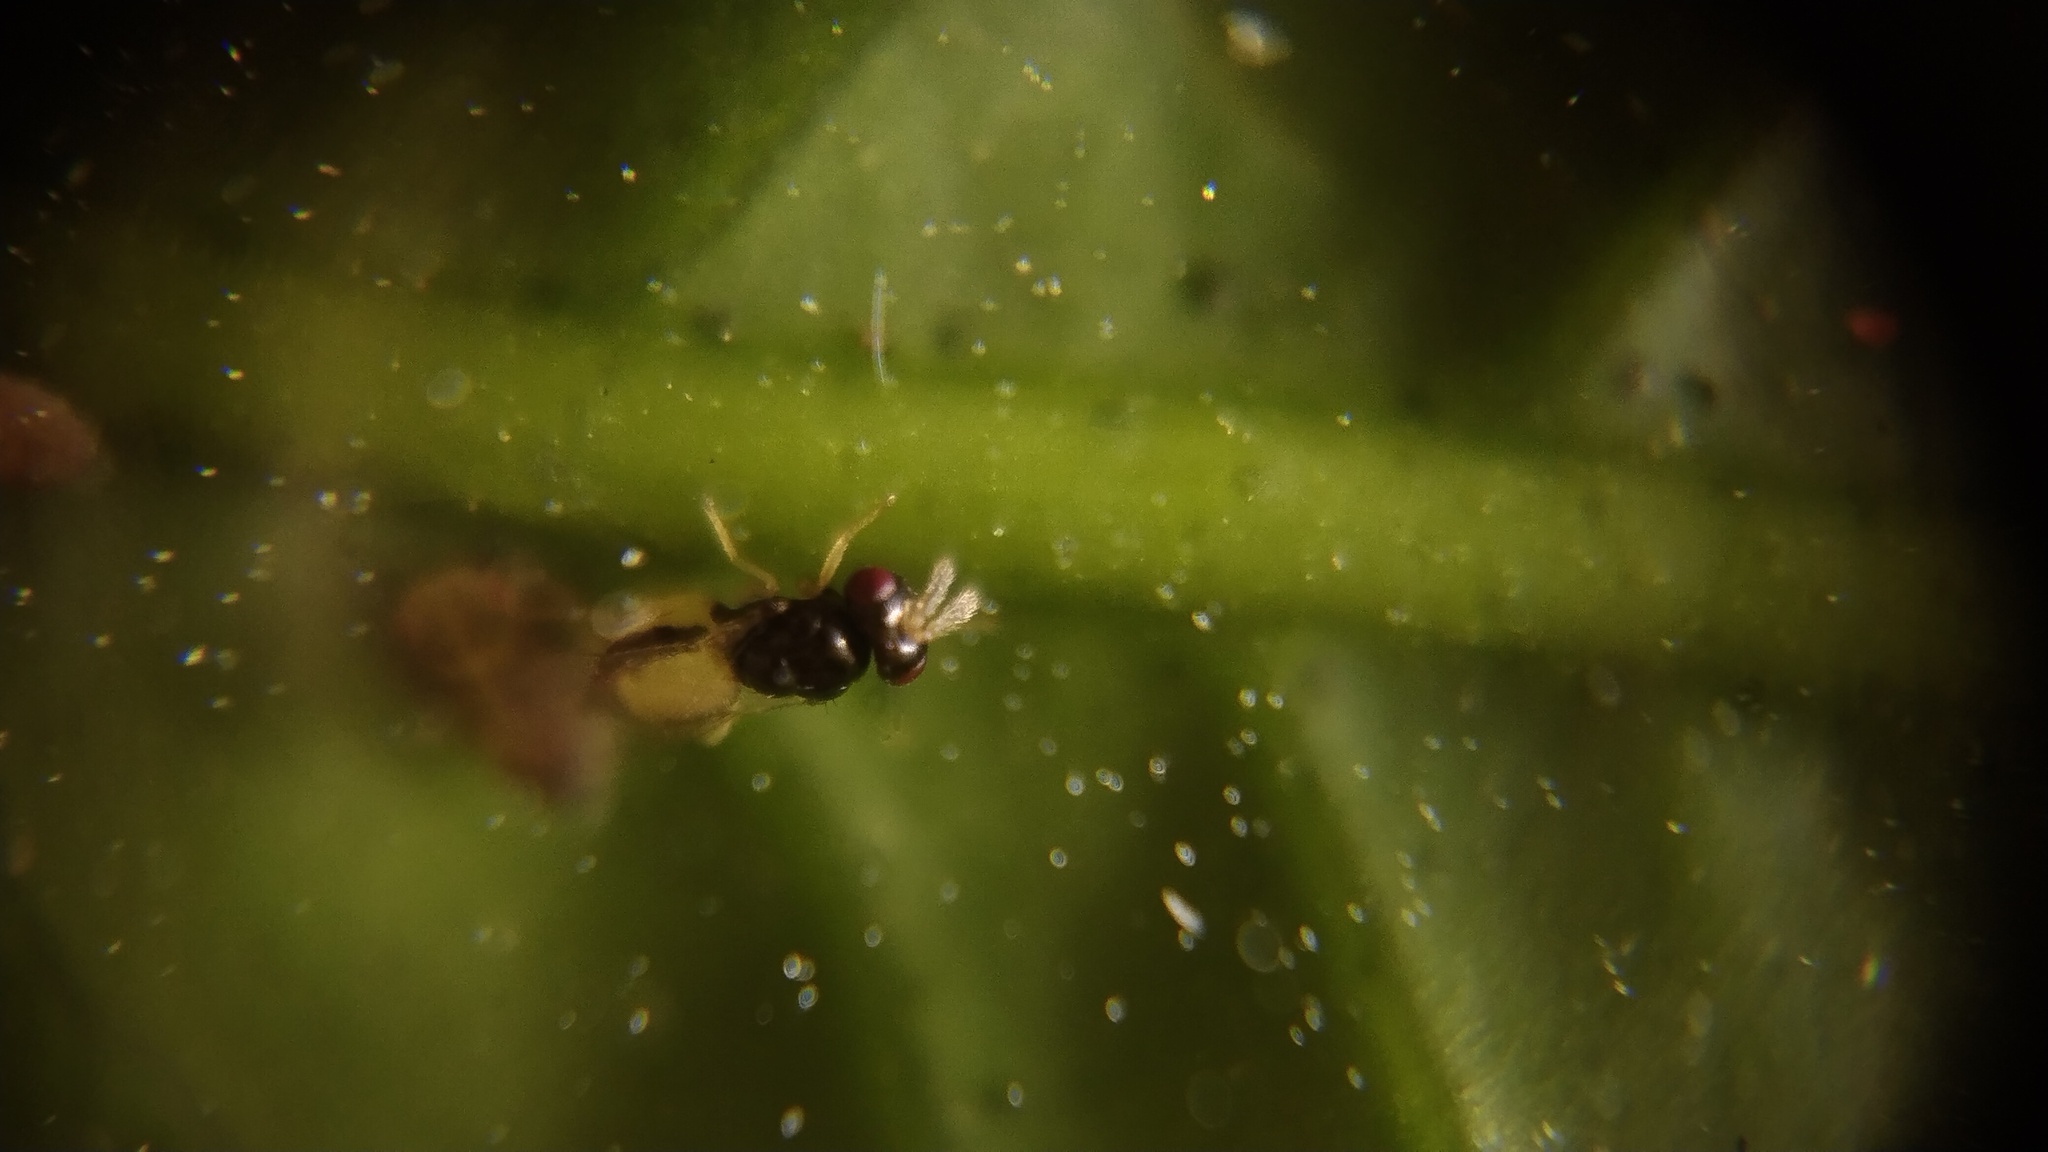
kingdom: Animalia
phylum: Arthropoda
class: Insecta
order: Hymenoptera
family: Eulophidae
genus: Tamarixia
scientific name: Tamarixia radiata
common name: Parasitoid wasp
